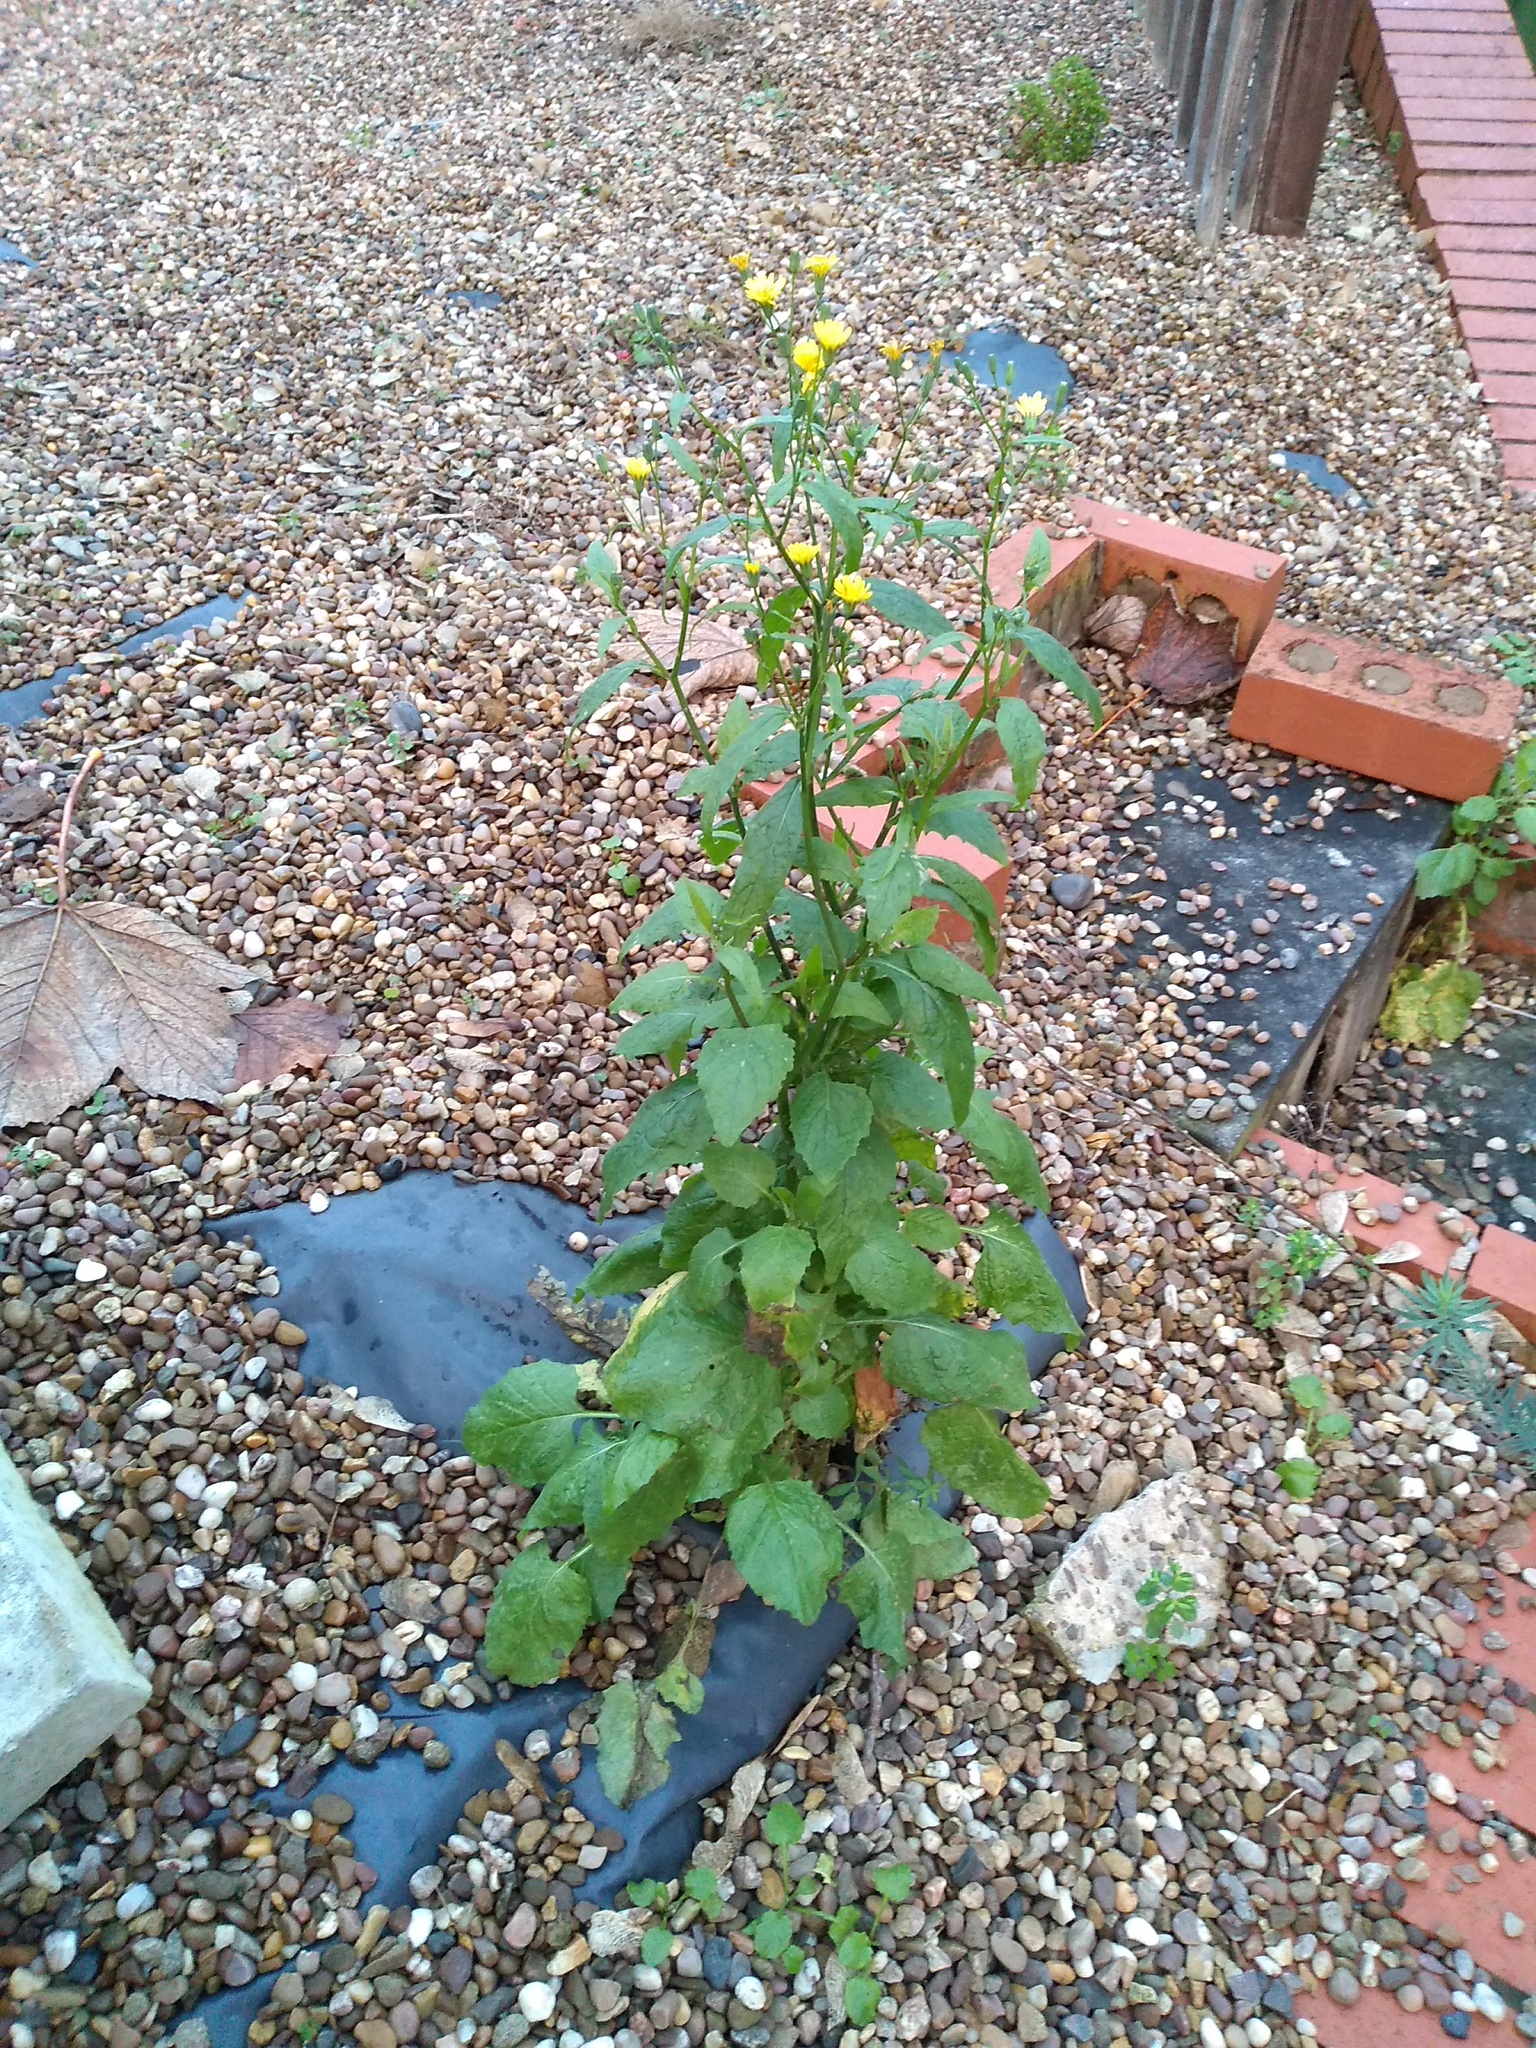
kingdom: Plantae
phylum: Tracheophyta
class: Magnoliopsida
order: Asterales
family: Asteraceae
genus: Lapsana
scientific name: Lapsana communis
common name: Nipplewort
